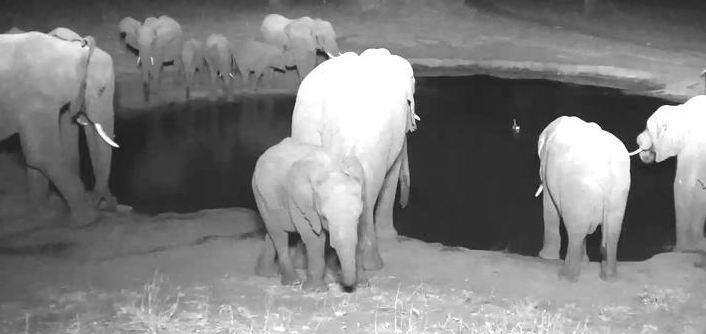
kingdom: Animalia
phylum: Chordata
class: Mammalia
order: Proboscidea
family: Elephantidae
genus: Loxodonta
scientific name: Loxodonta africana
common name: African elephant
